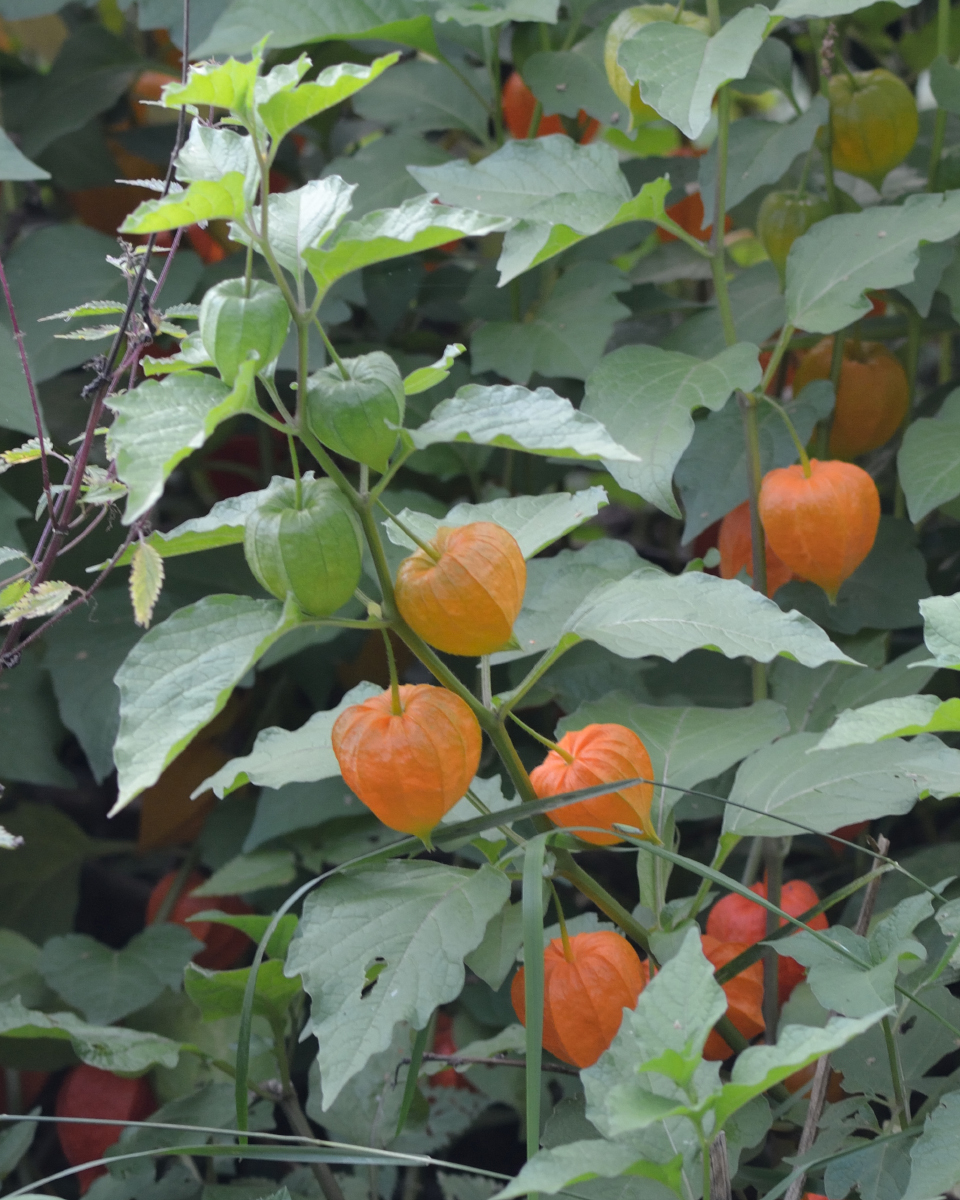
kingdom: Plantae
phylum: Tracheophyta
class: Magnoliopsida
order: Solanales
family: Solanaceae
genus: Alkekengi
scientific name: Alkekengi officinarum
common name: Japanese-lantern
